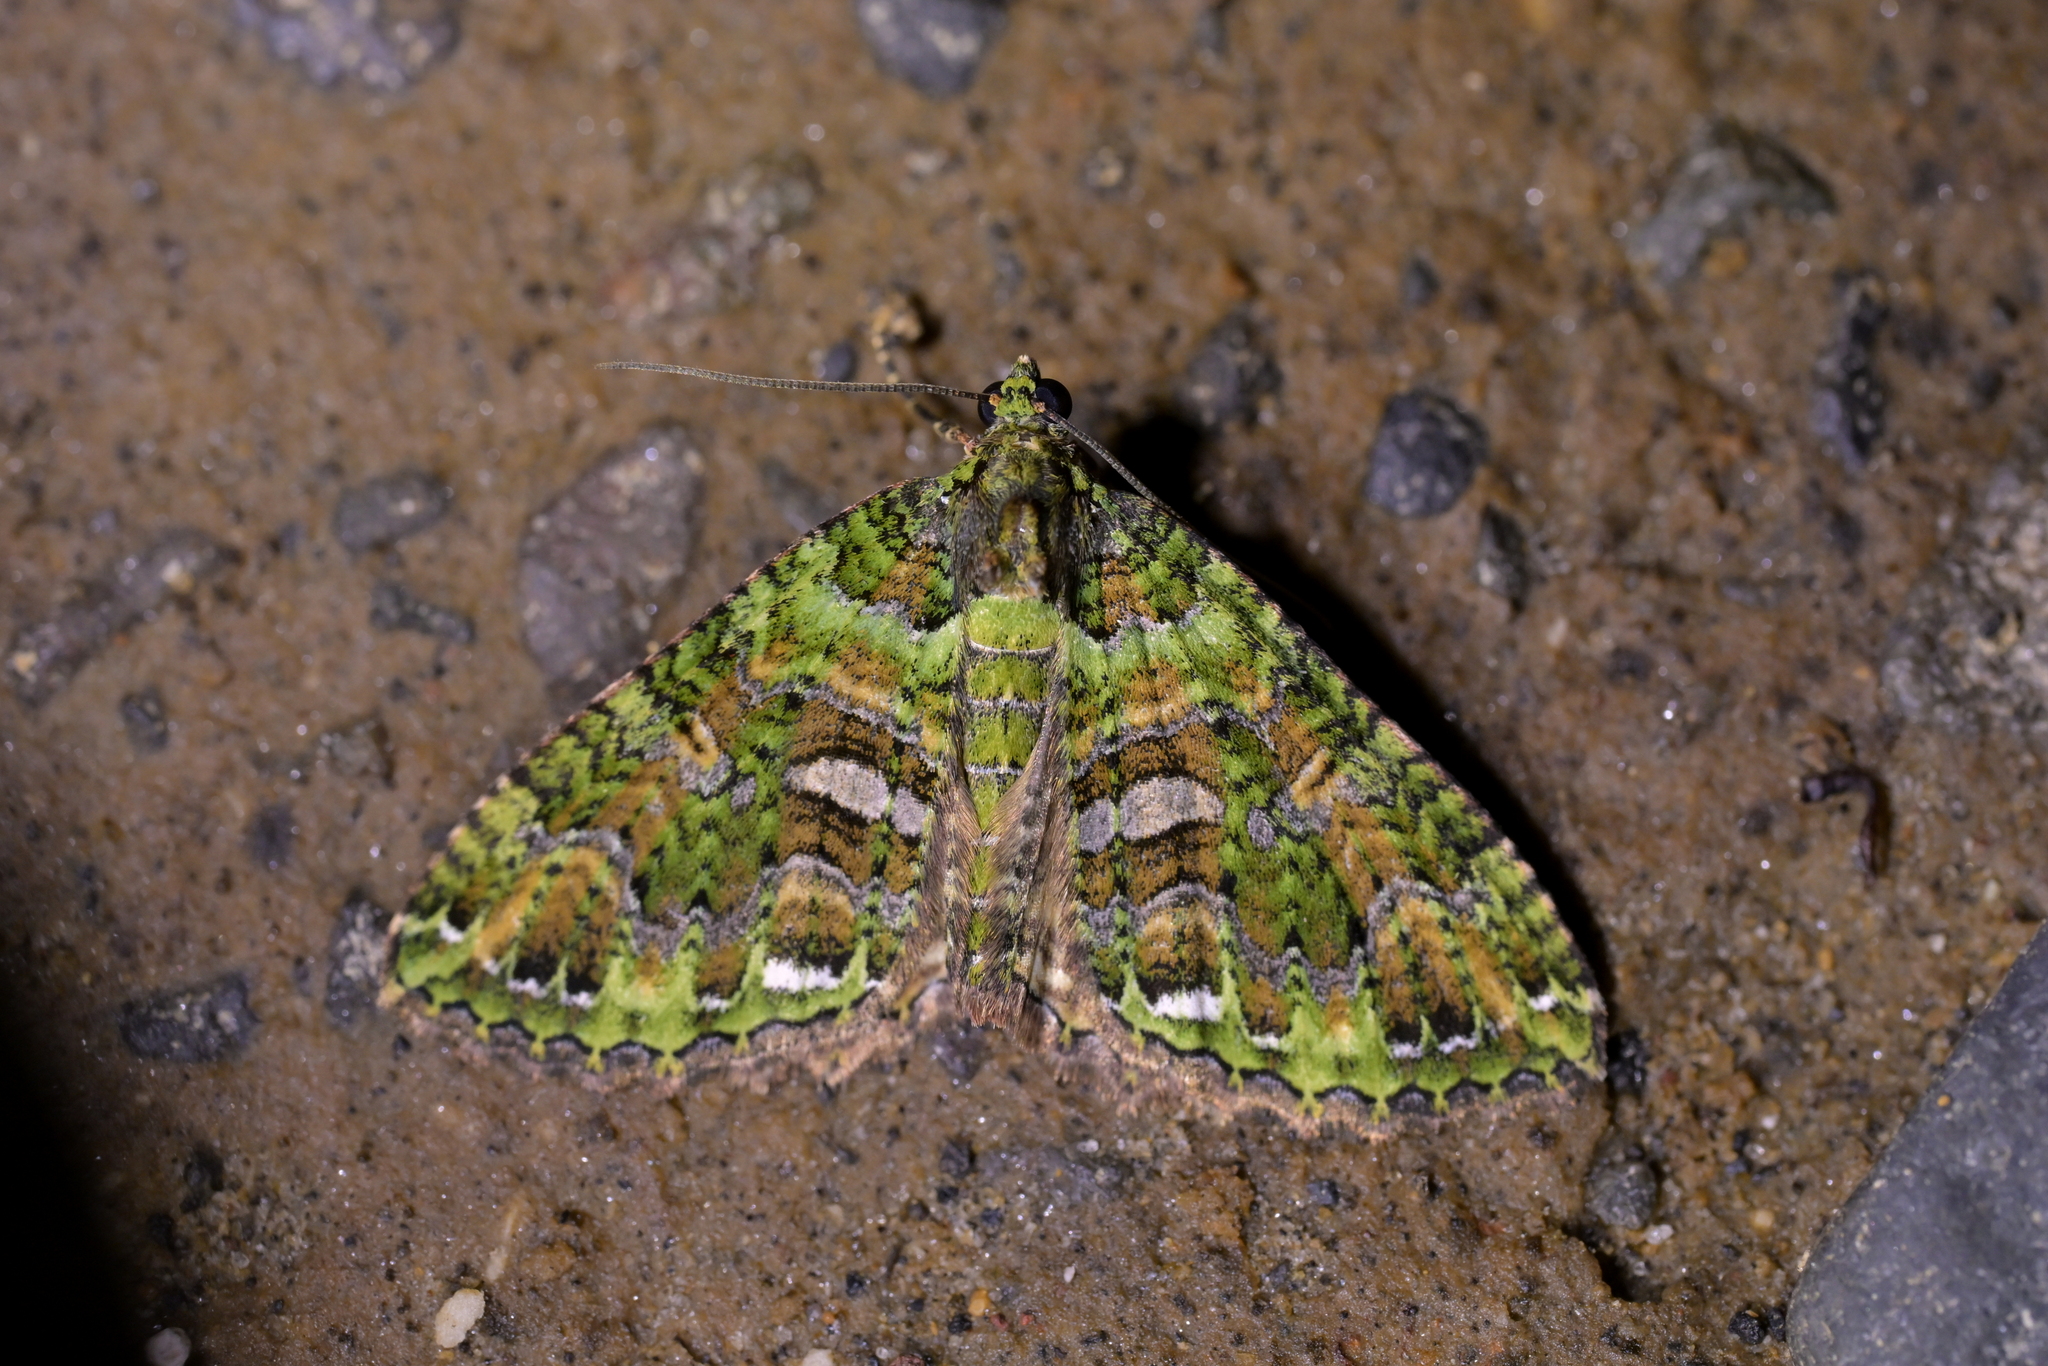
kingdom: Animalia
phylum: Arthropoda
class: Insecta
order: Lepidoptera
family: Geometridae
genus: Austrocidaria
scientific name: Austrocidaria similata
